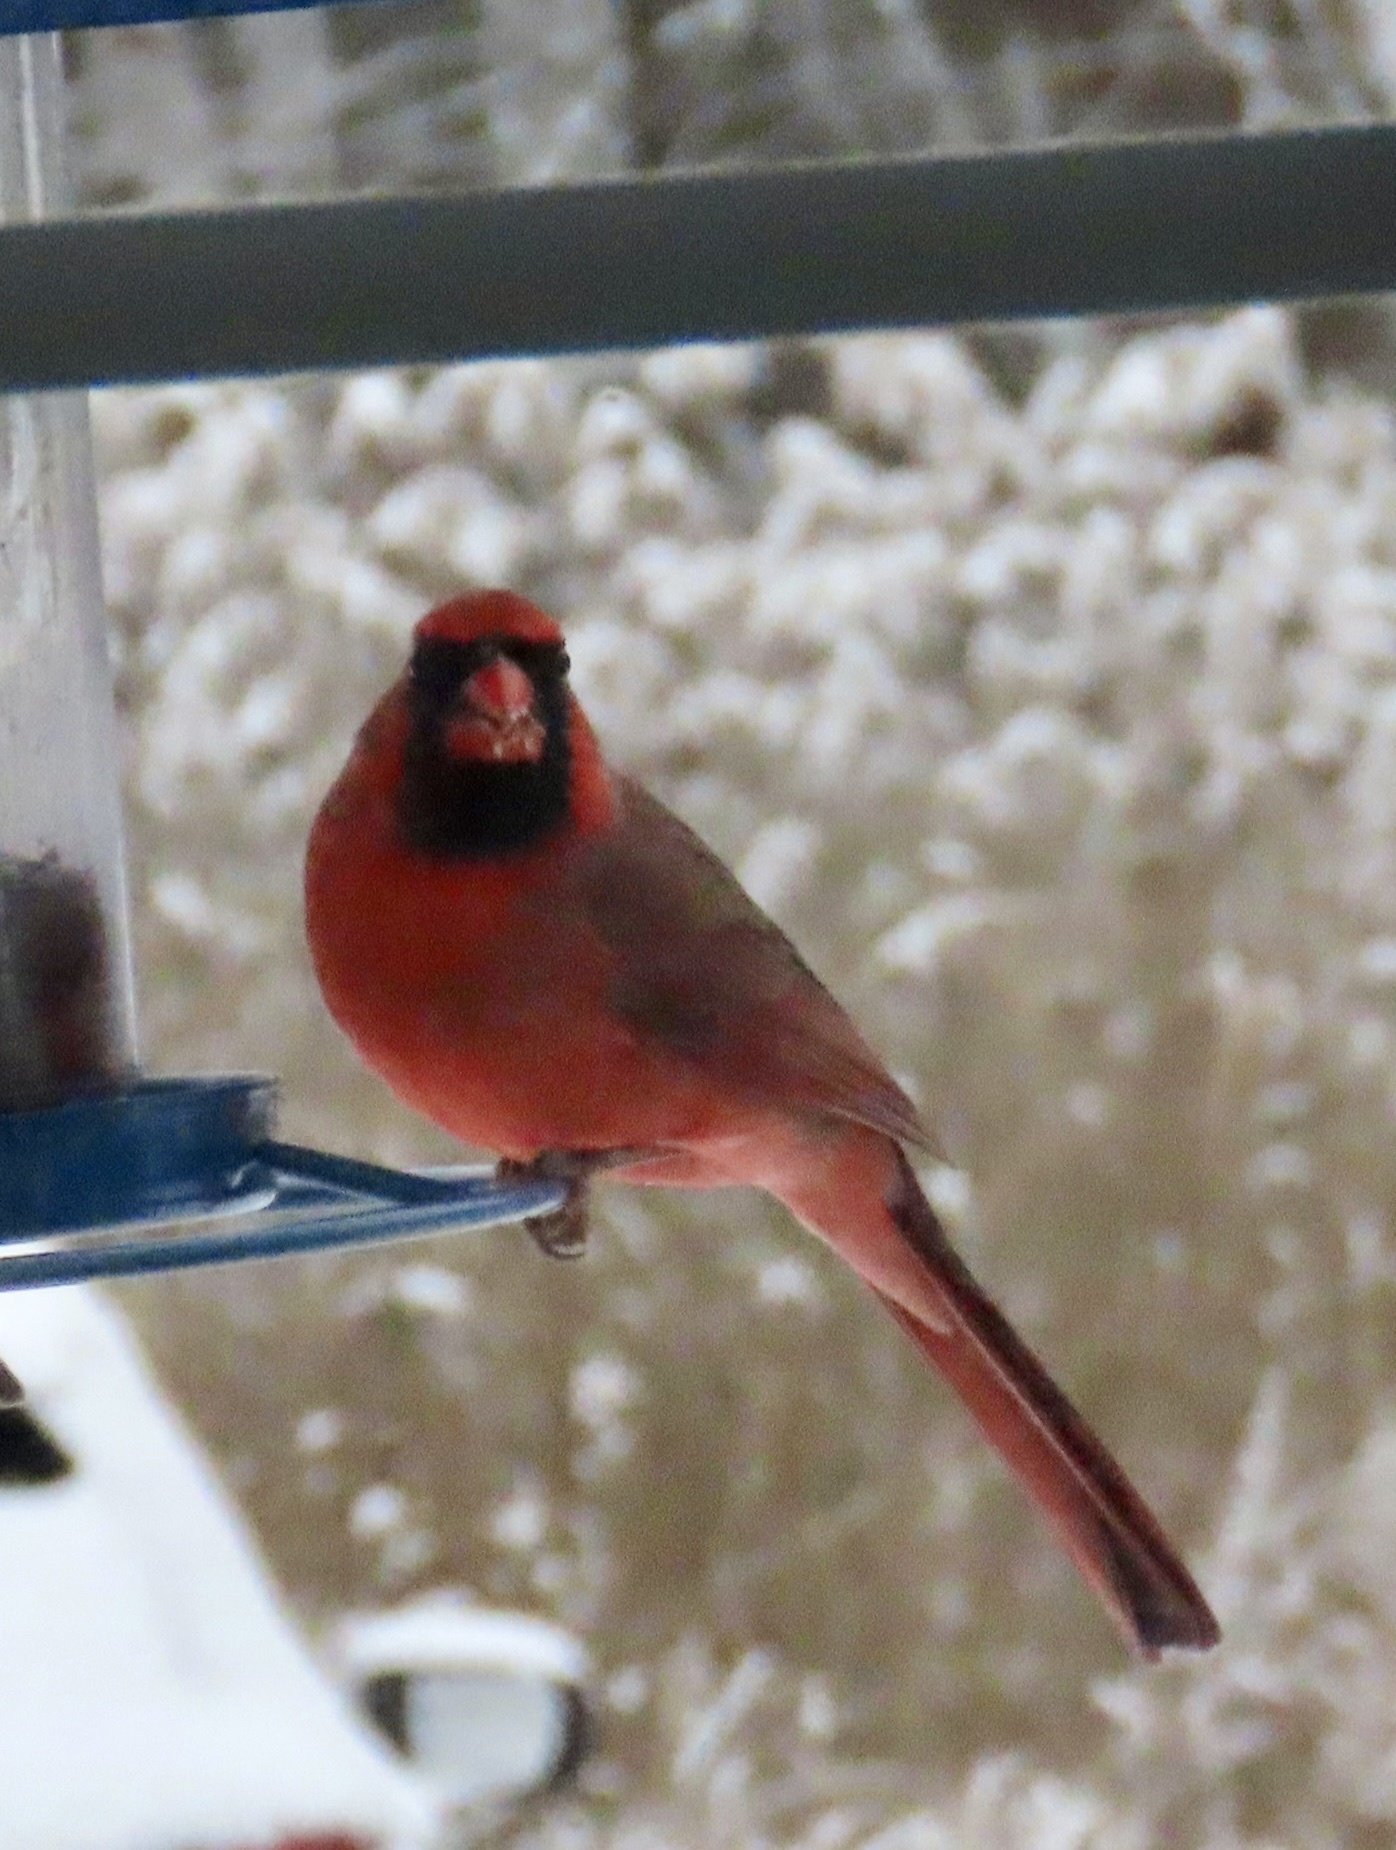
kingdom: Animalia
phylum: Chordata
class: Aves
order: Passeriformes
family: Cardinalidae
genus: Cardinalis
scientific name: Cardinalis cardinalis
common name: Northern cardinal
